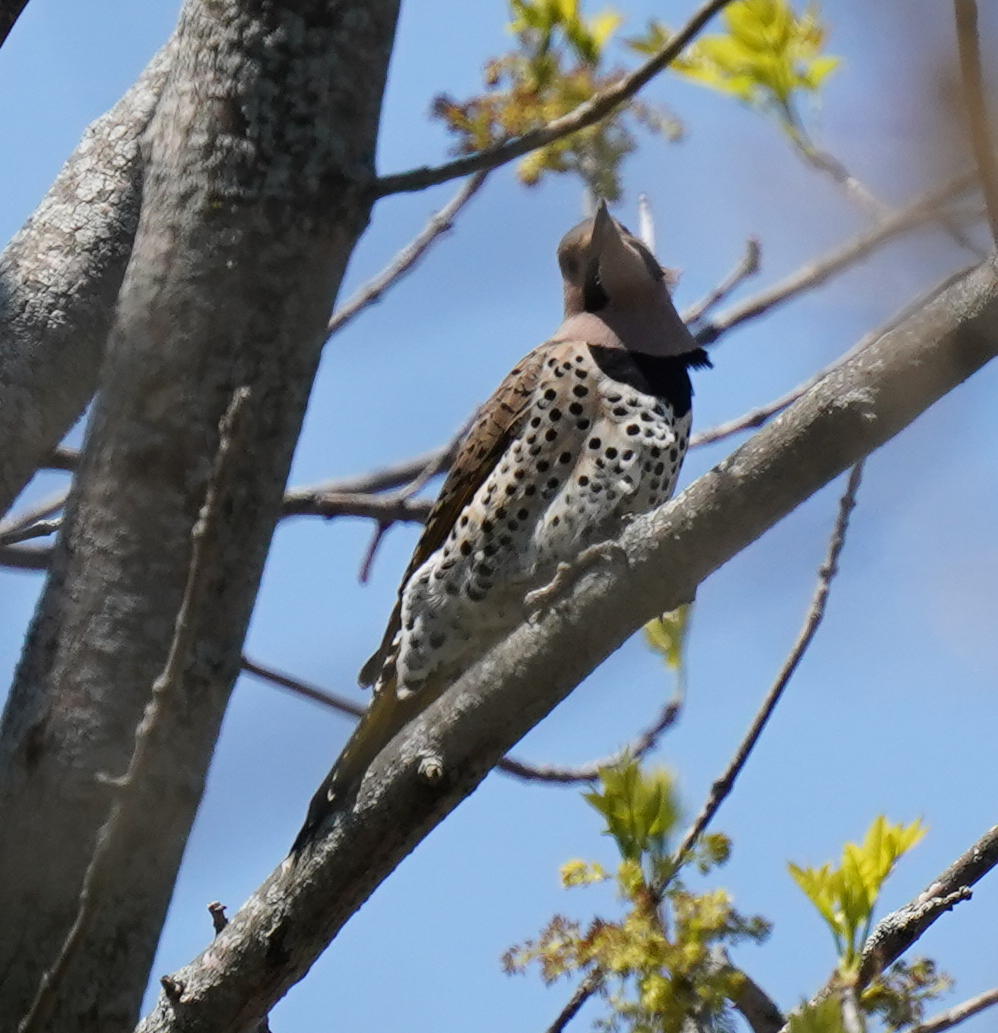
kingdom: Animalia
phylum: Chordata
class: Aves
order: Piciformes
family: Picidae
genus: Colaptes
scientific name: Colaptes auratus
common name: Northern flicker
